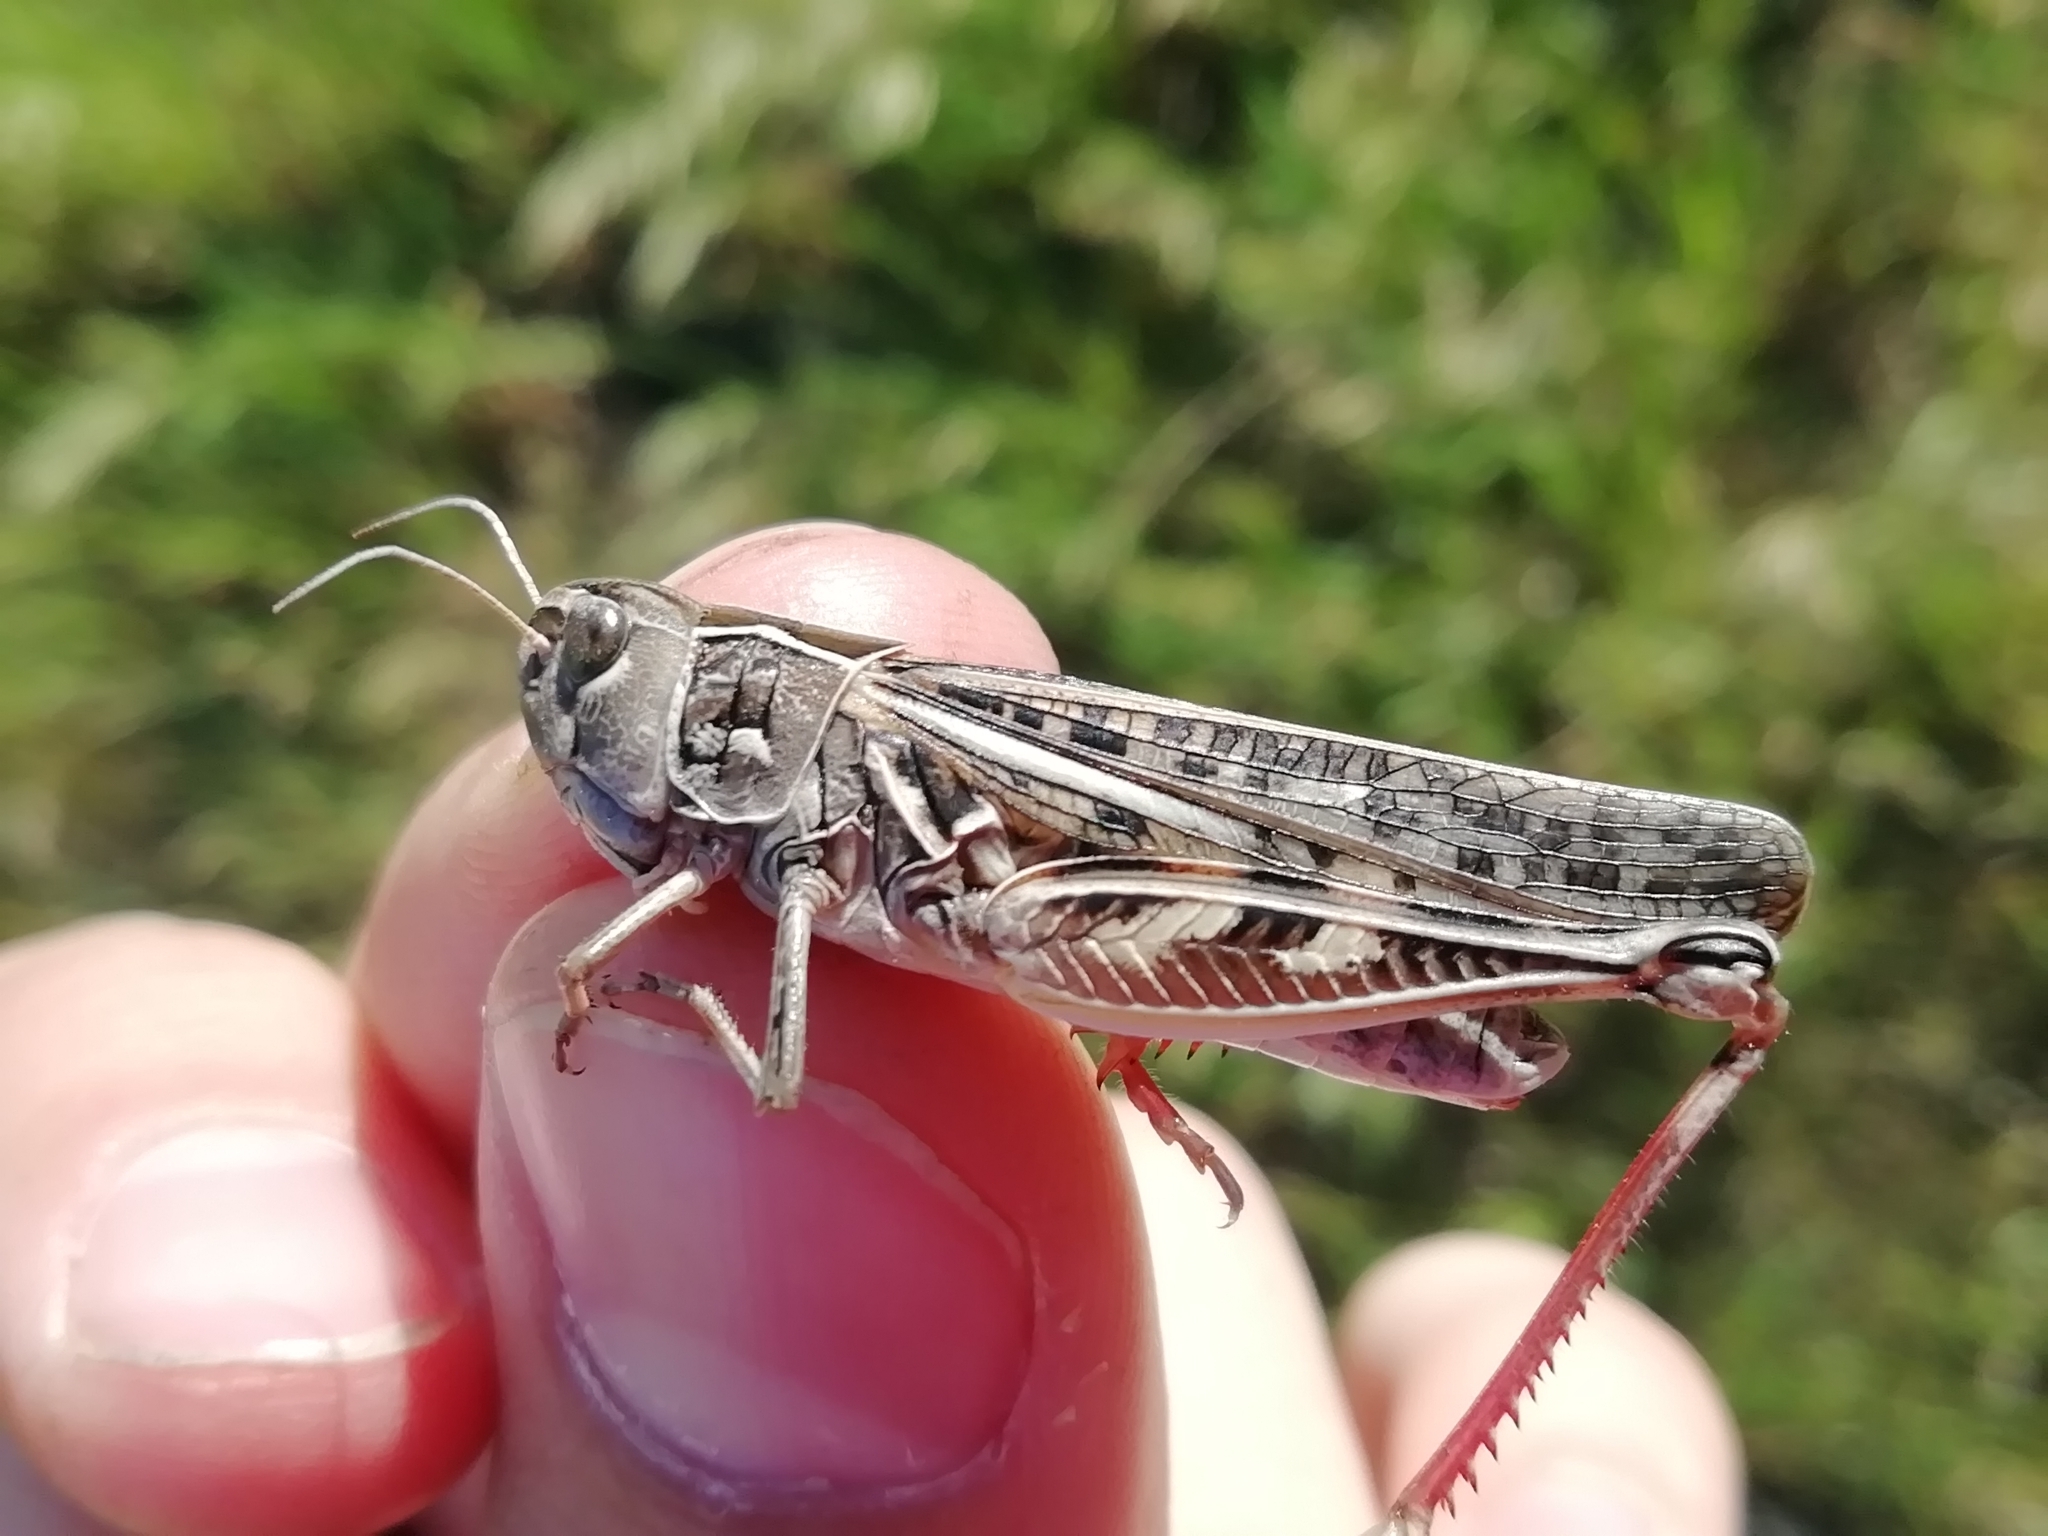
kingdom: Animalia
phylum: Arthropoda
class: Insecta
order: Orthoptera
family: Acrididae
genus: Arcyptera
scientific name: Arcyptera microptera
